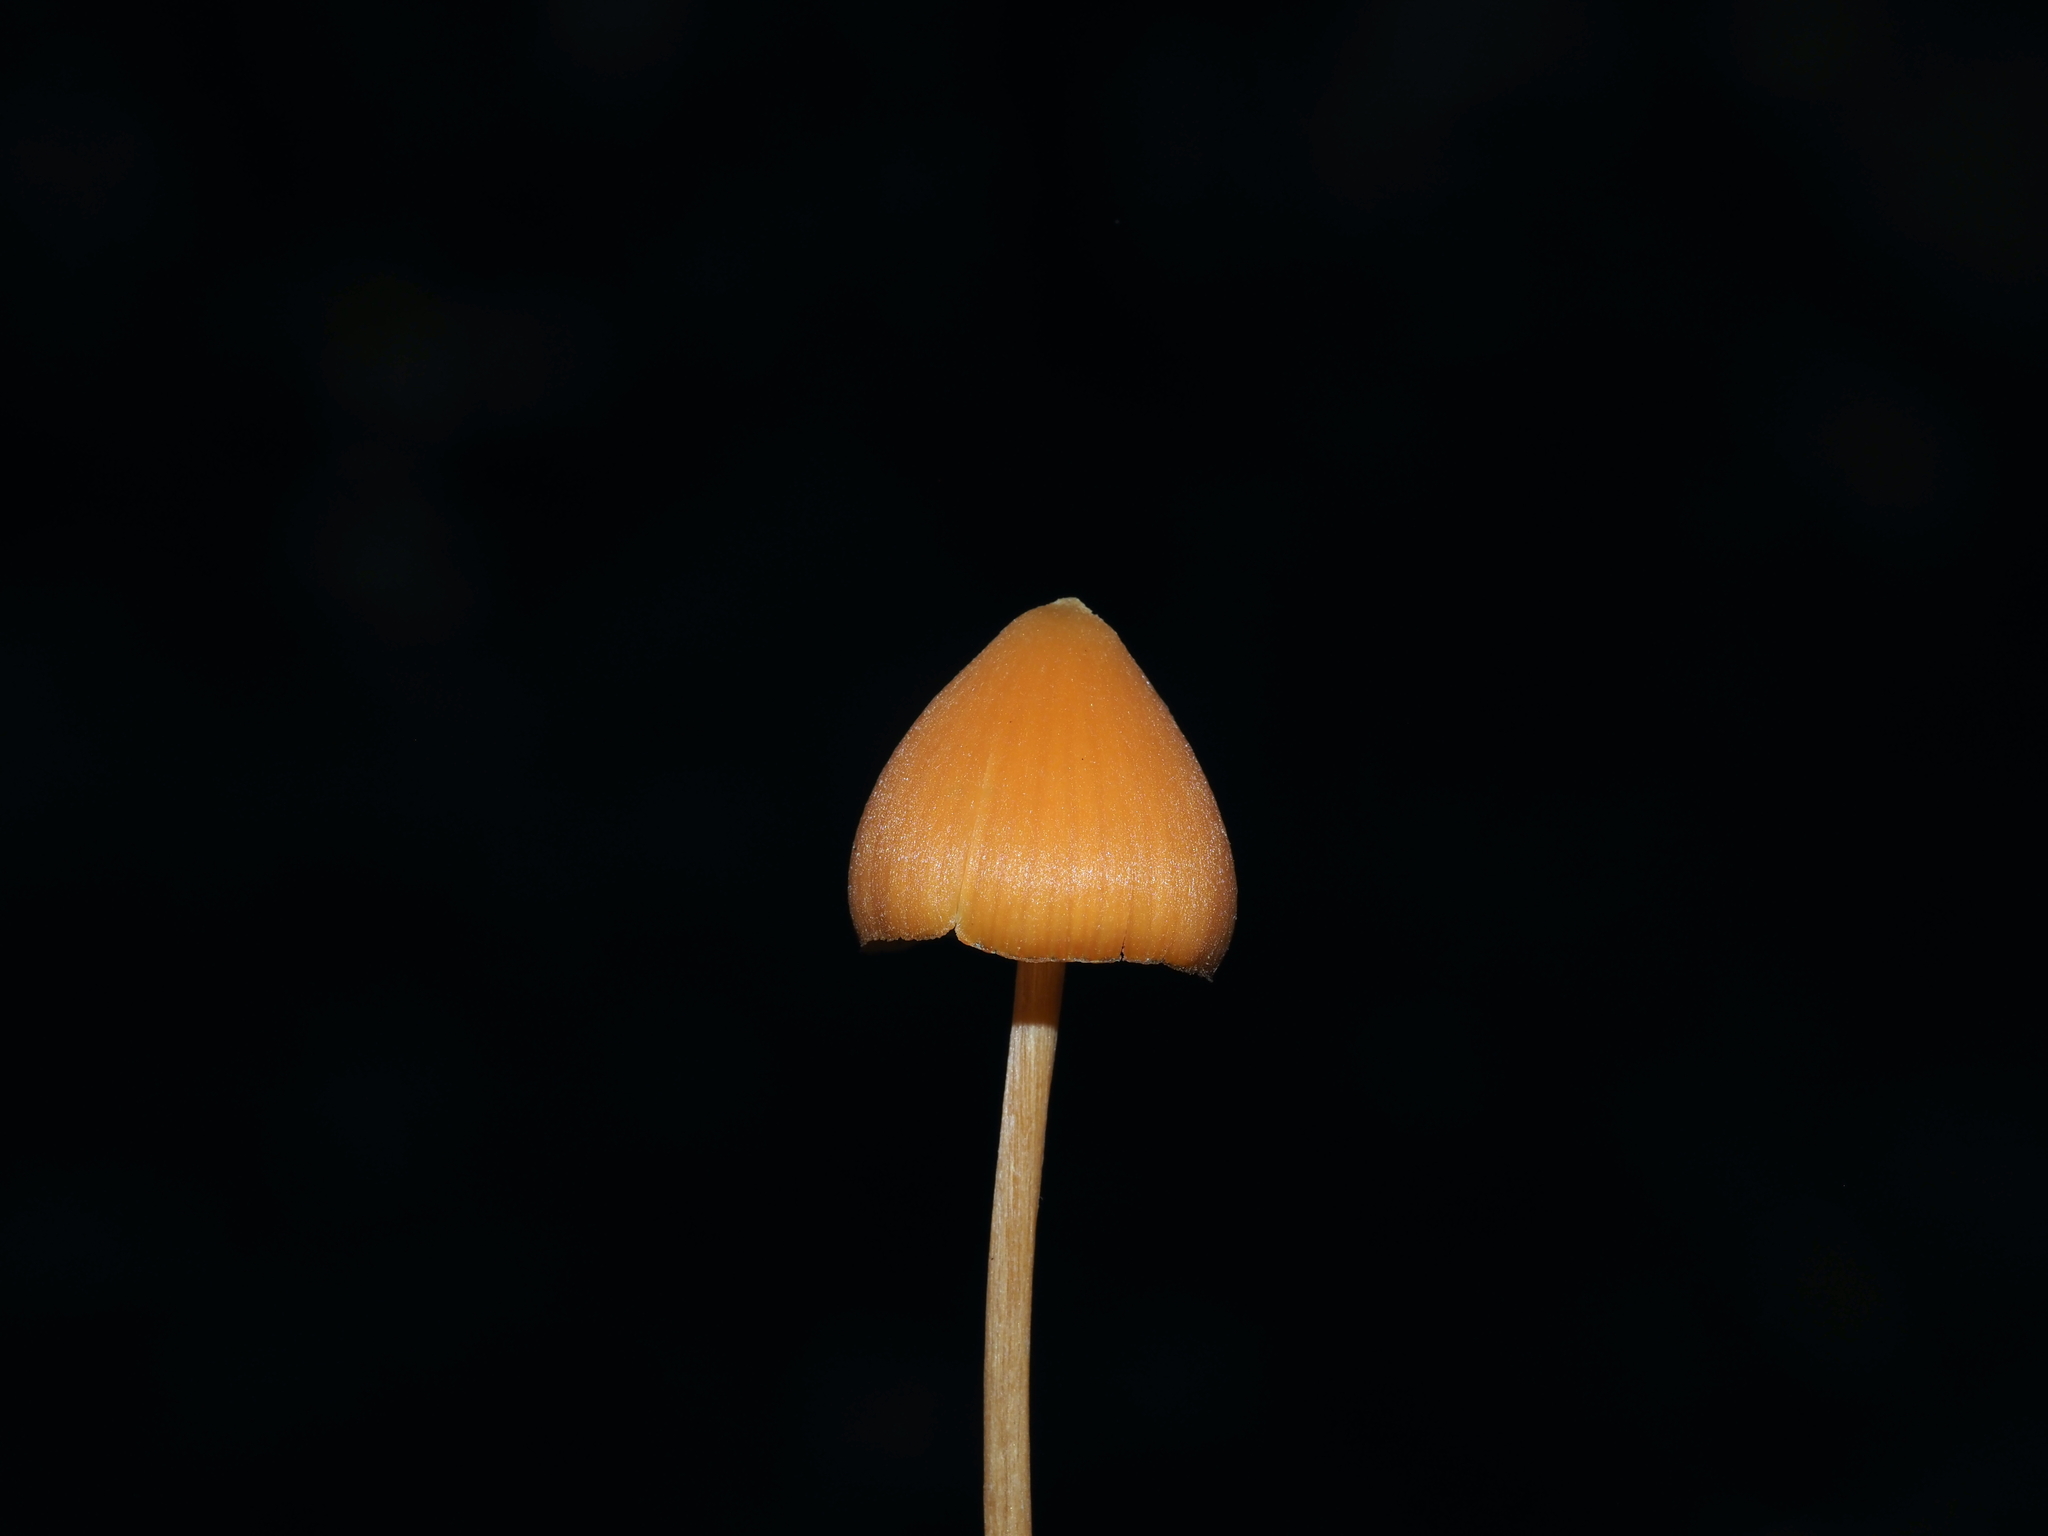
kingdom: Fungi
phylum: Basidiomycota
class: Agaricomycetes
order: Agaricales
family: Entolomataceae
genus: Entoloma
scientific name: Entoloma quadratum
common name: Salmon pinkgill
